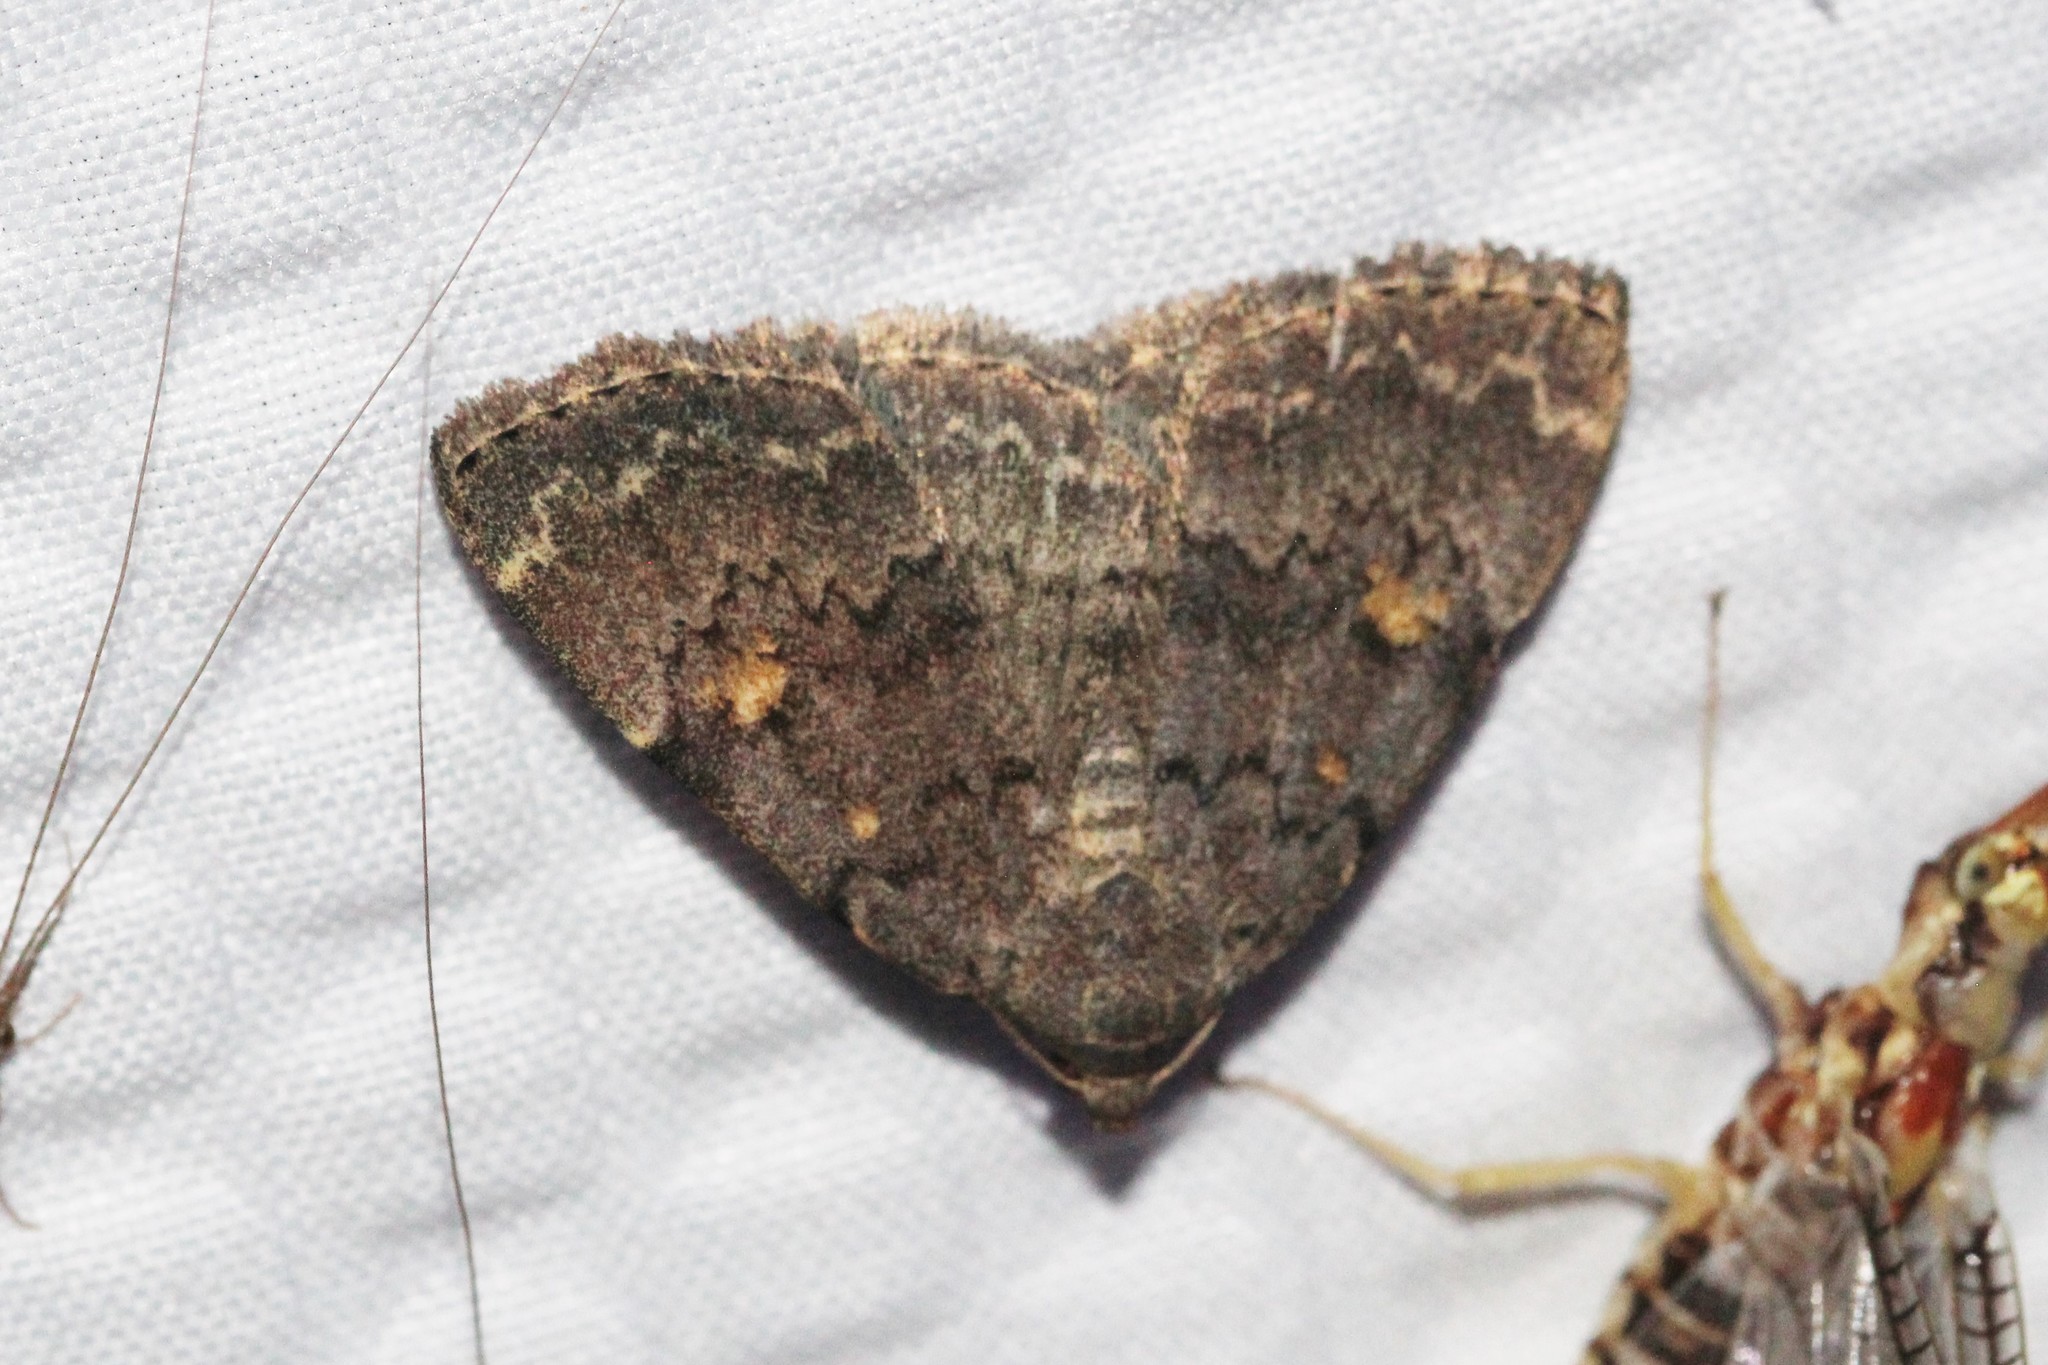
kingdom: Animalia
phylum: Arthropoda
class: Insecta
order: Lepidoptera
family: Erebidae
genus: Idia
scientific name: Idia aemula
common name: Common idia moth
